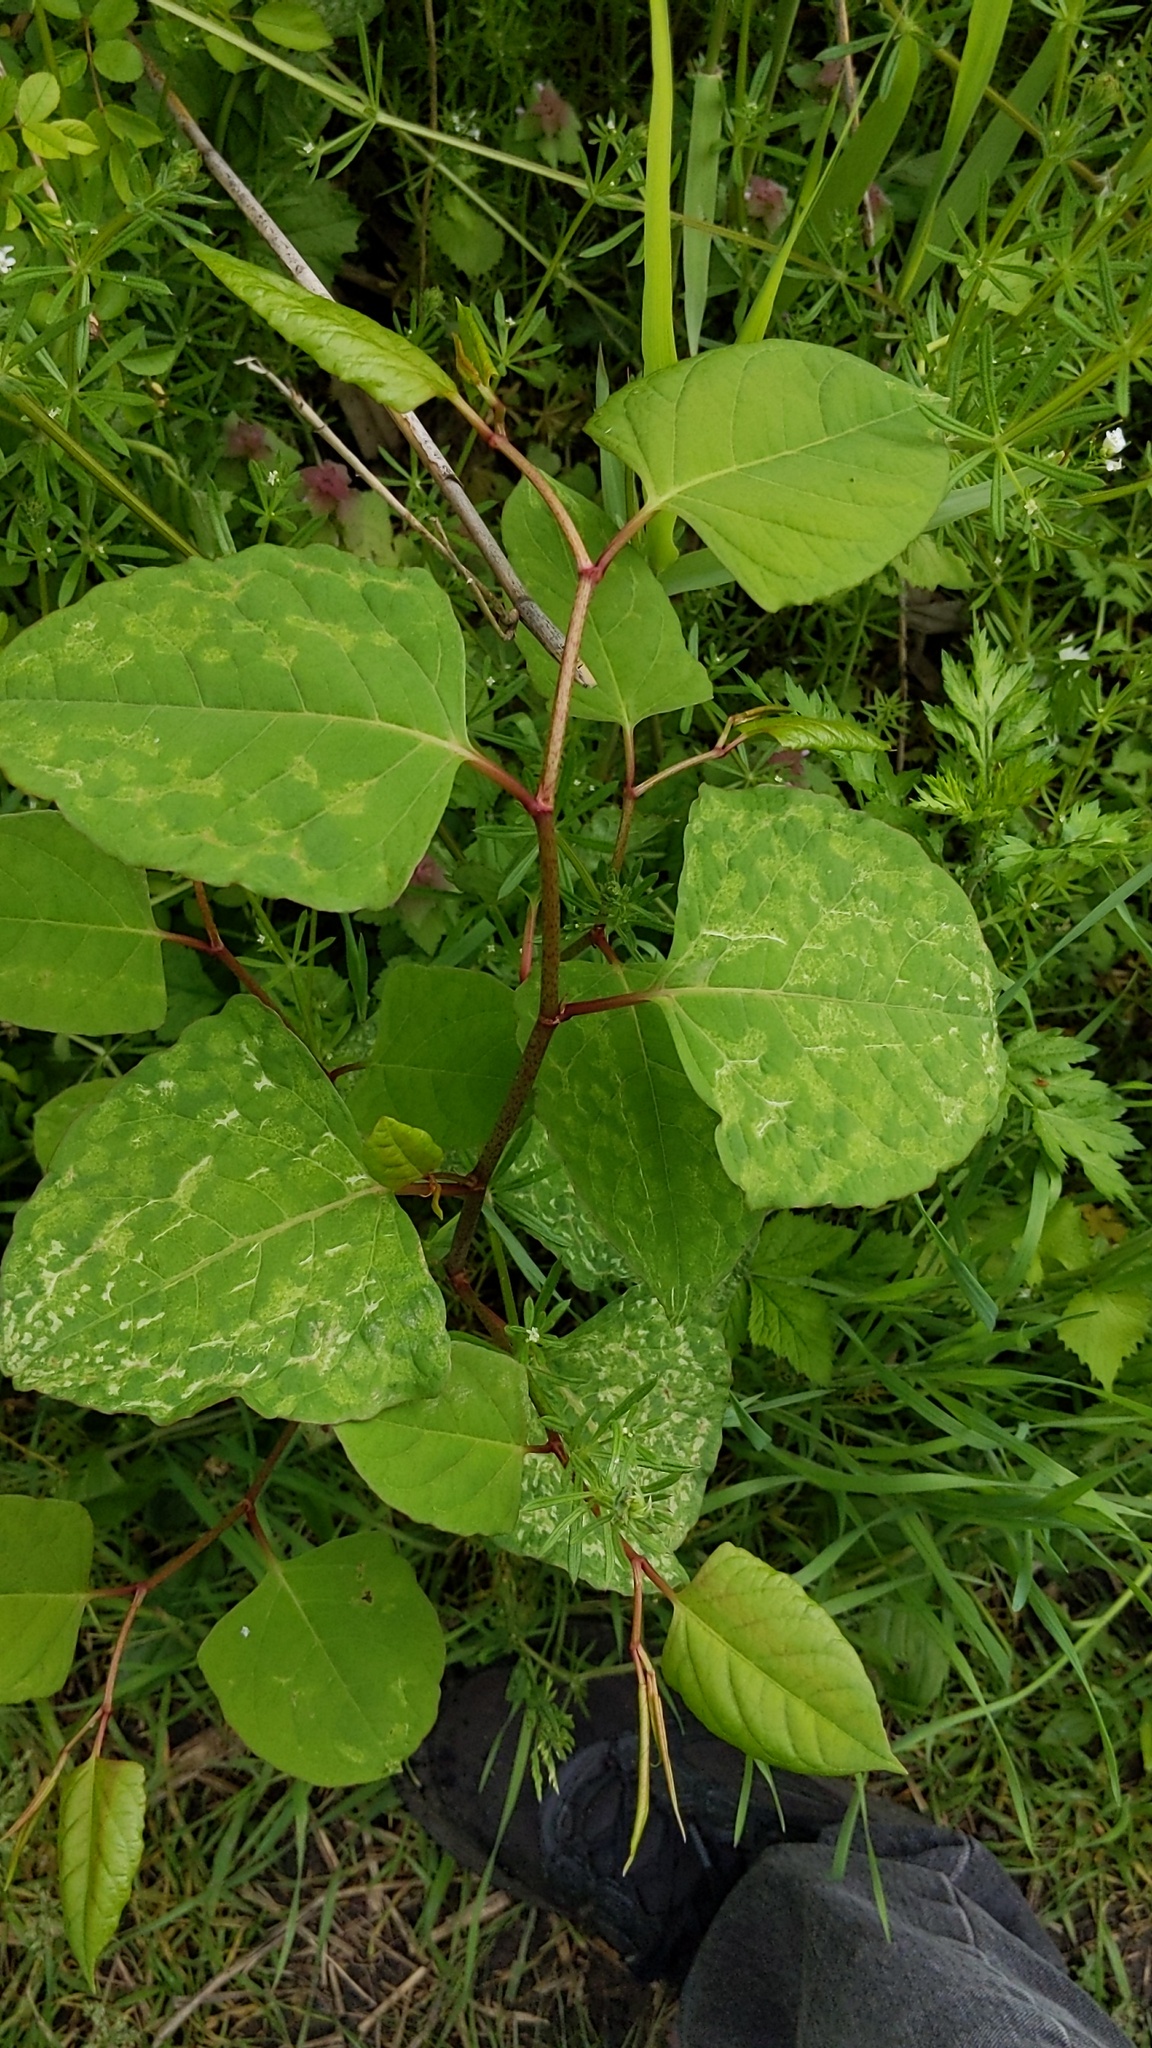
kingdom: Plantae
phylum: Tracheophyta
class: Magnoliopsida
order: Caryophyllales
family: Polygonaceae
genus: Reynoutria
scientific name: Reynoutria japonica
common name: Japanese knotweed
